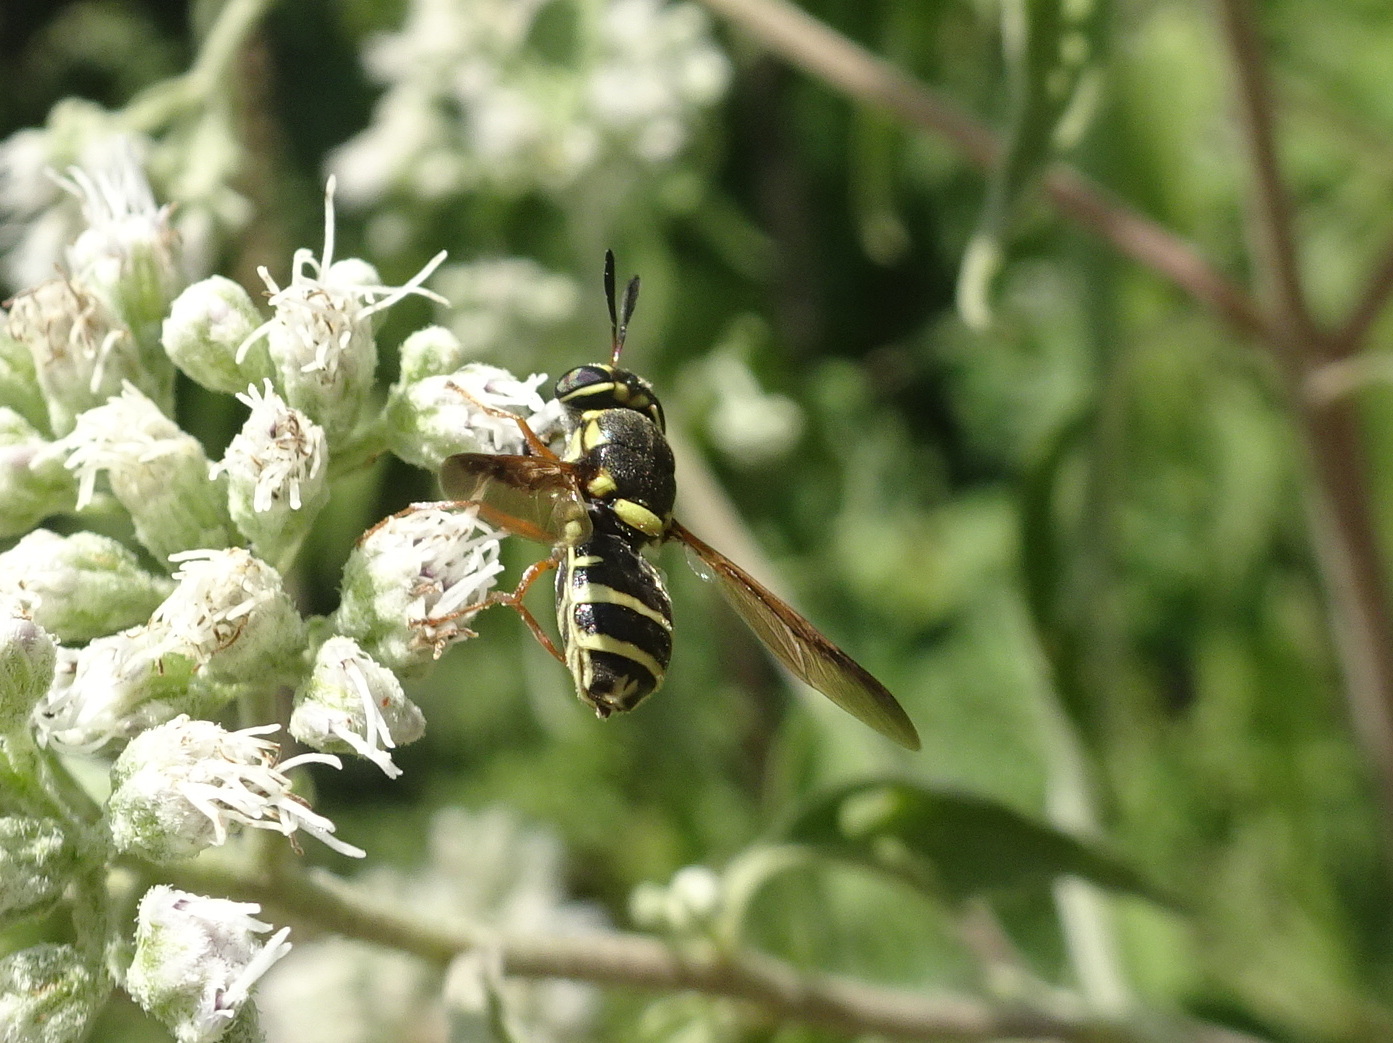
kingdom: Animalia
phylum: Arthropoda
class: Insecta
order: Diptera
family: Stratiomyidae
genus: Hoplitimyia
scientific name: Hoplitimyia constans
